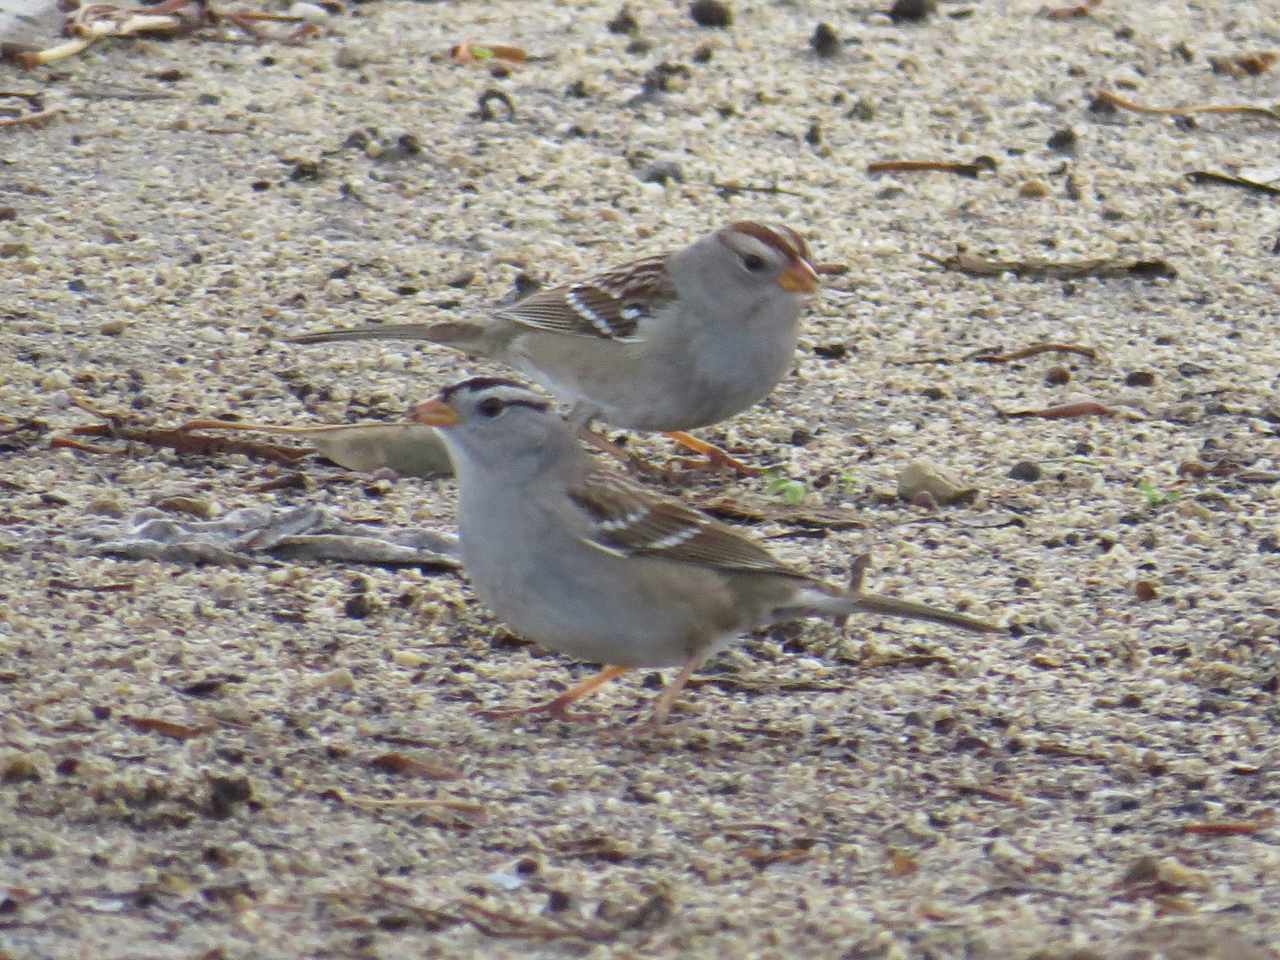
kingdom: Animalia
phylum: Chordata
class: Aves
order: Passeriformes
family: Passerellidae
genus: Zonotrichia
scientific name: Zonotrichia leucophrys
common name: White-crowned sparrow
